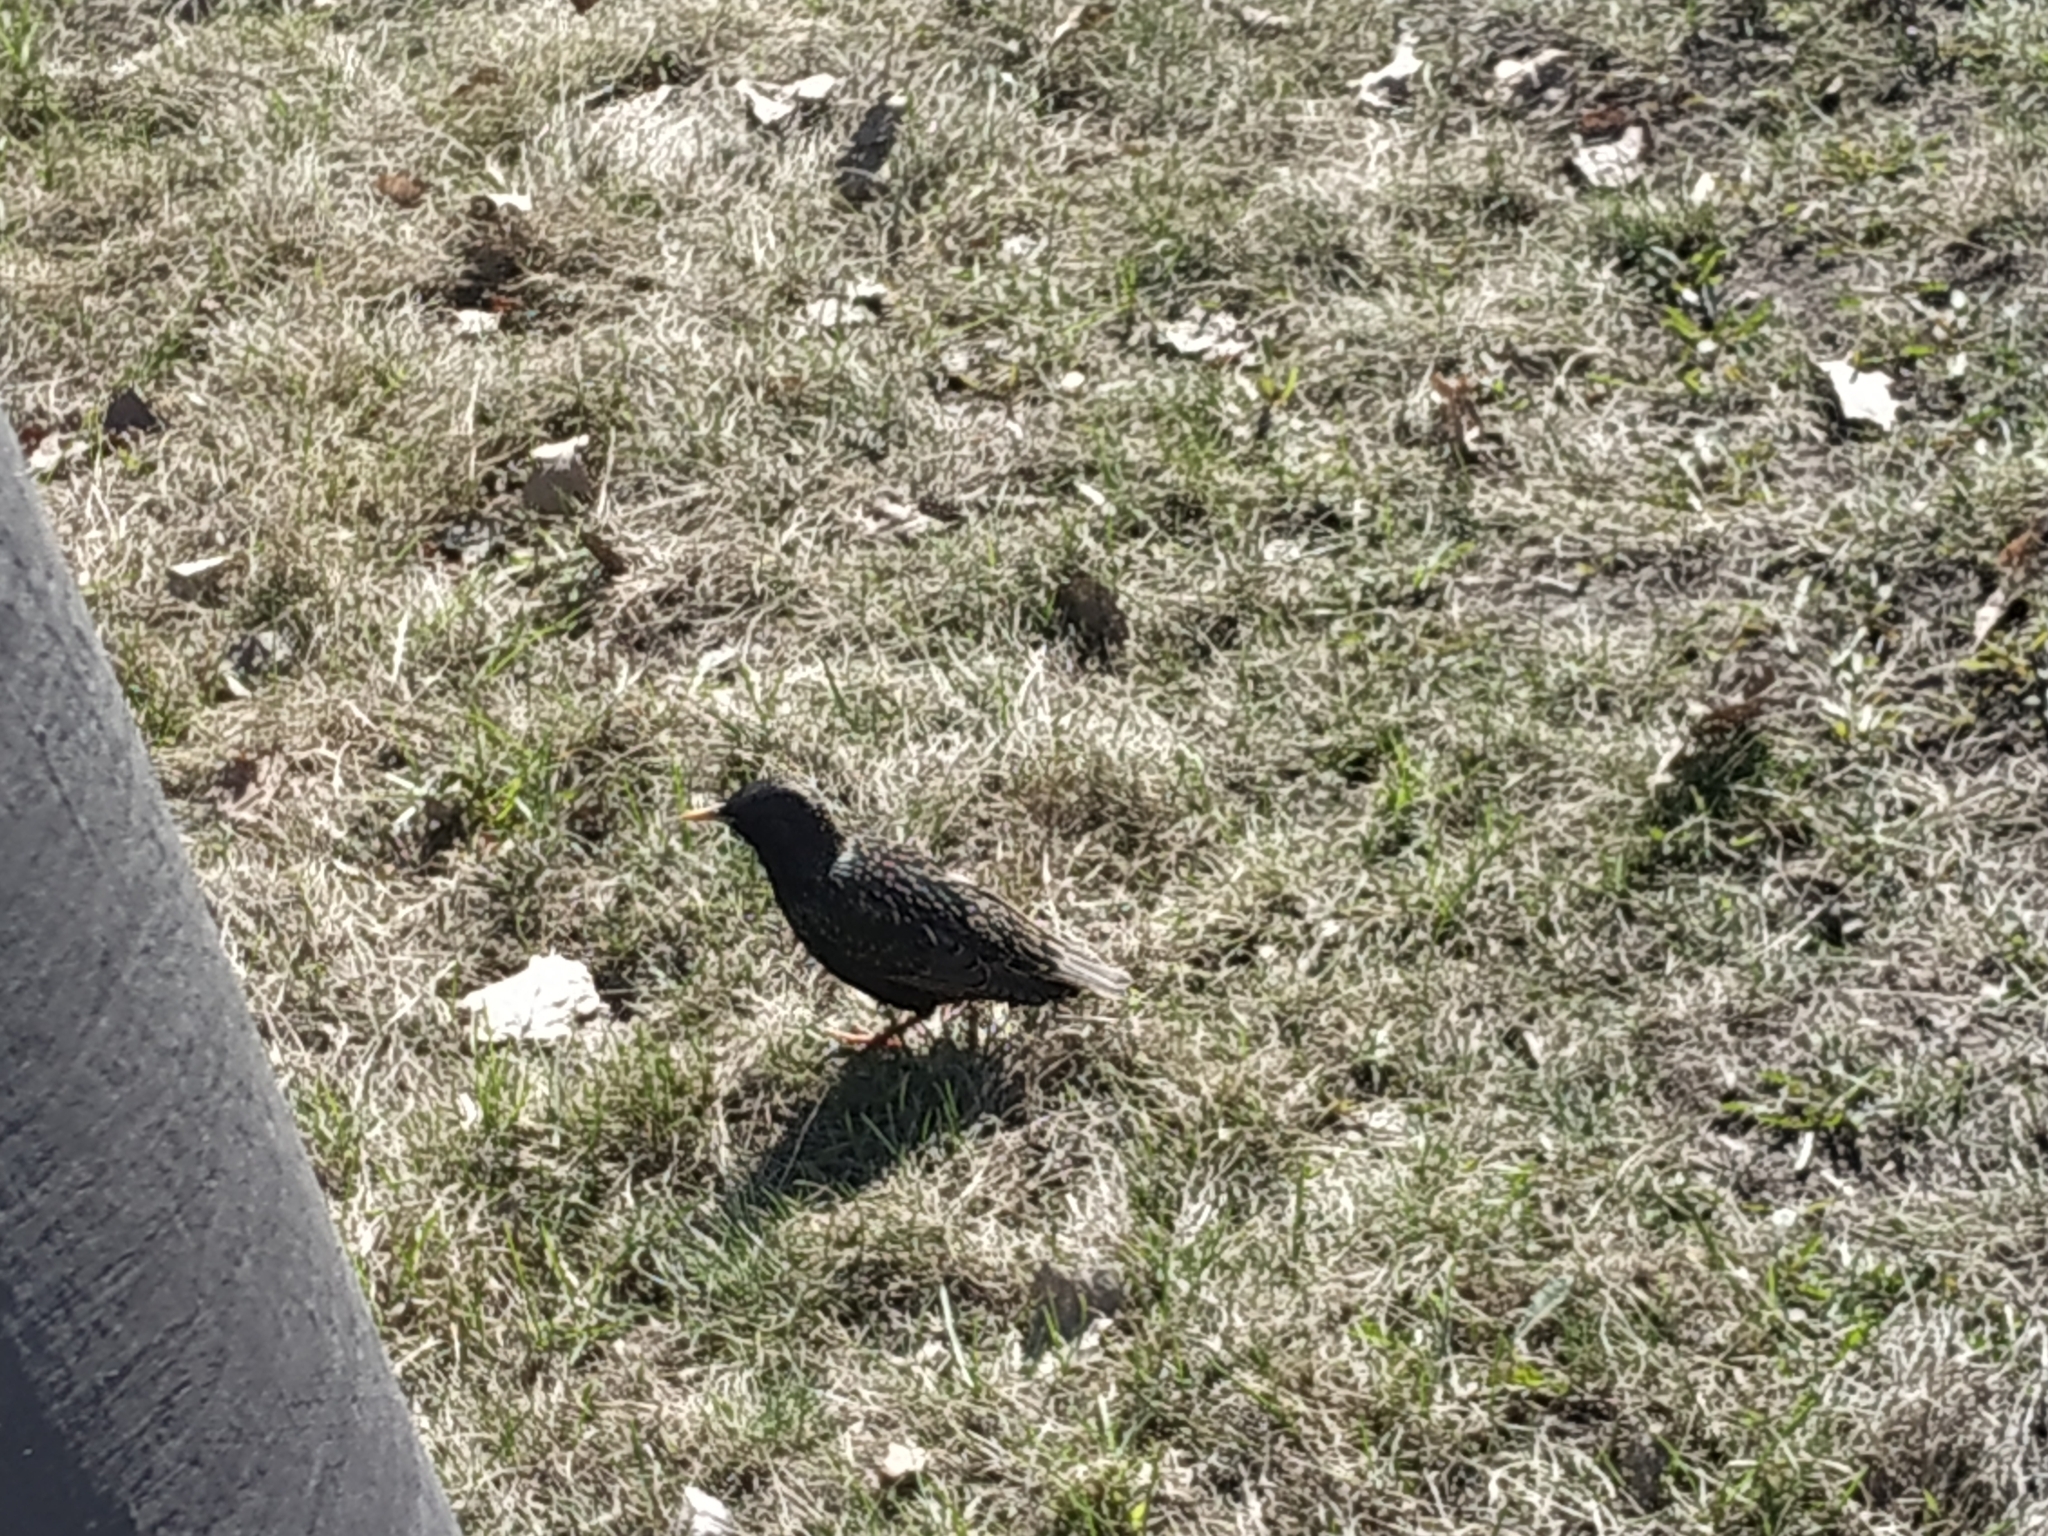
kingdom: Animalia
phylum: Chordata
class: Aves
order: Passeriformes
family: Sturnidae
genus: Sturnus
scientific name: Sturnus vulgaris
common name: Common starling
